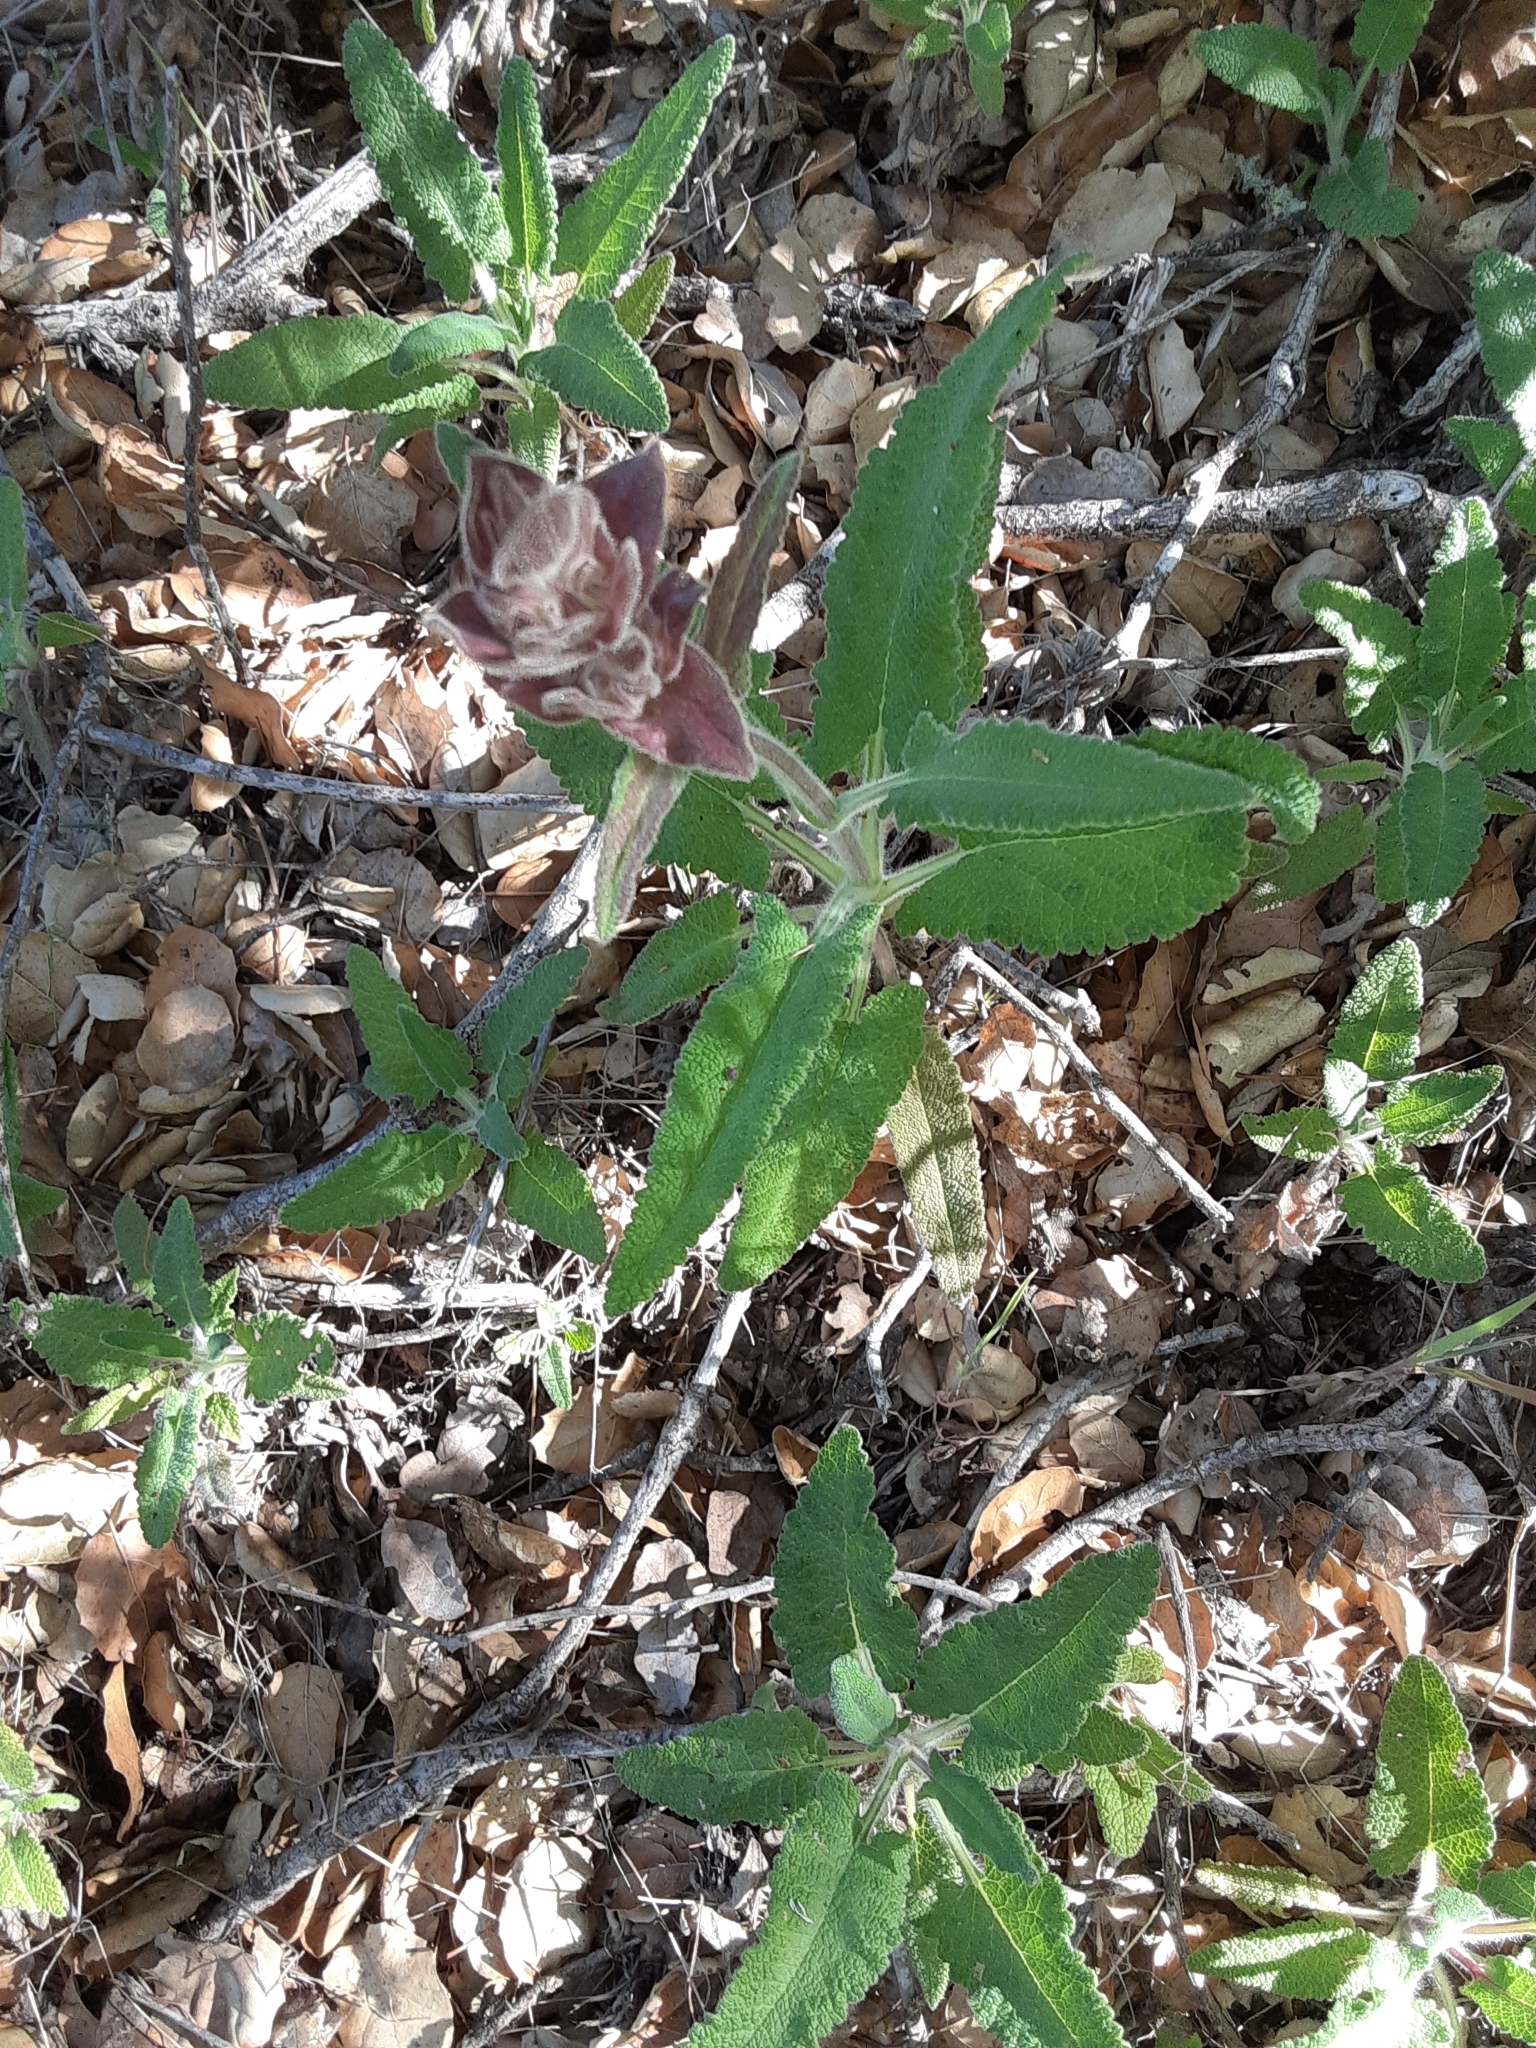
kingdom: Plantae
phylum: Tracheophyta
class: Magnoliopsida
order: Lamiales
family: Lamiaceae
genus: Salvia
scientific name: Salvia spathacea
